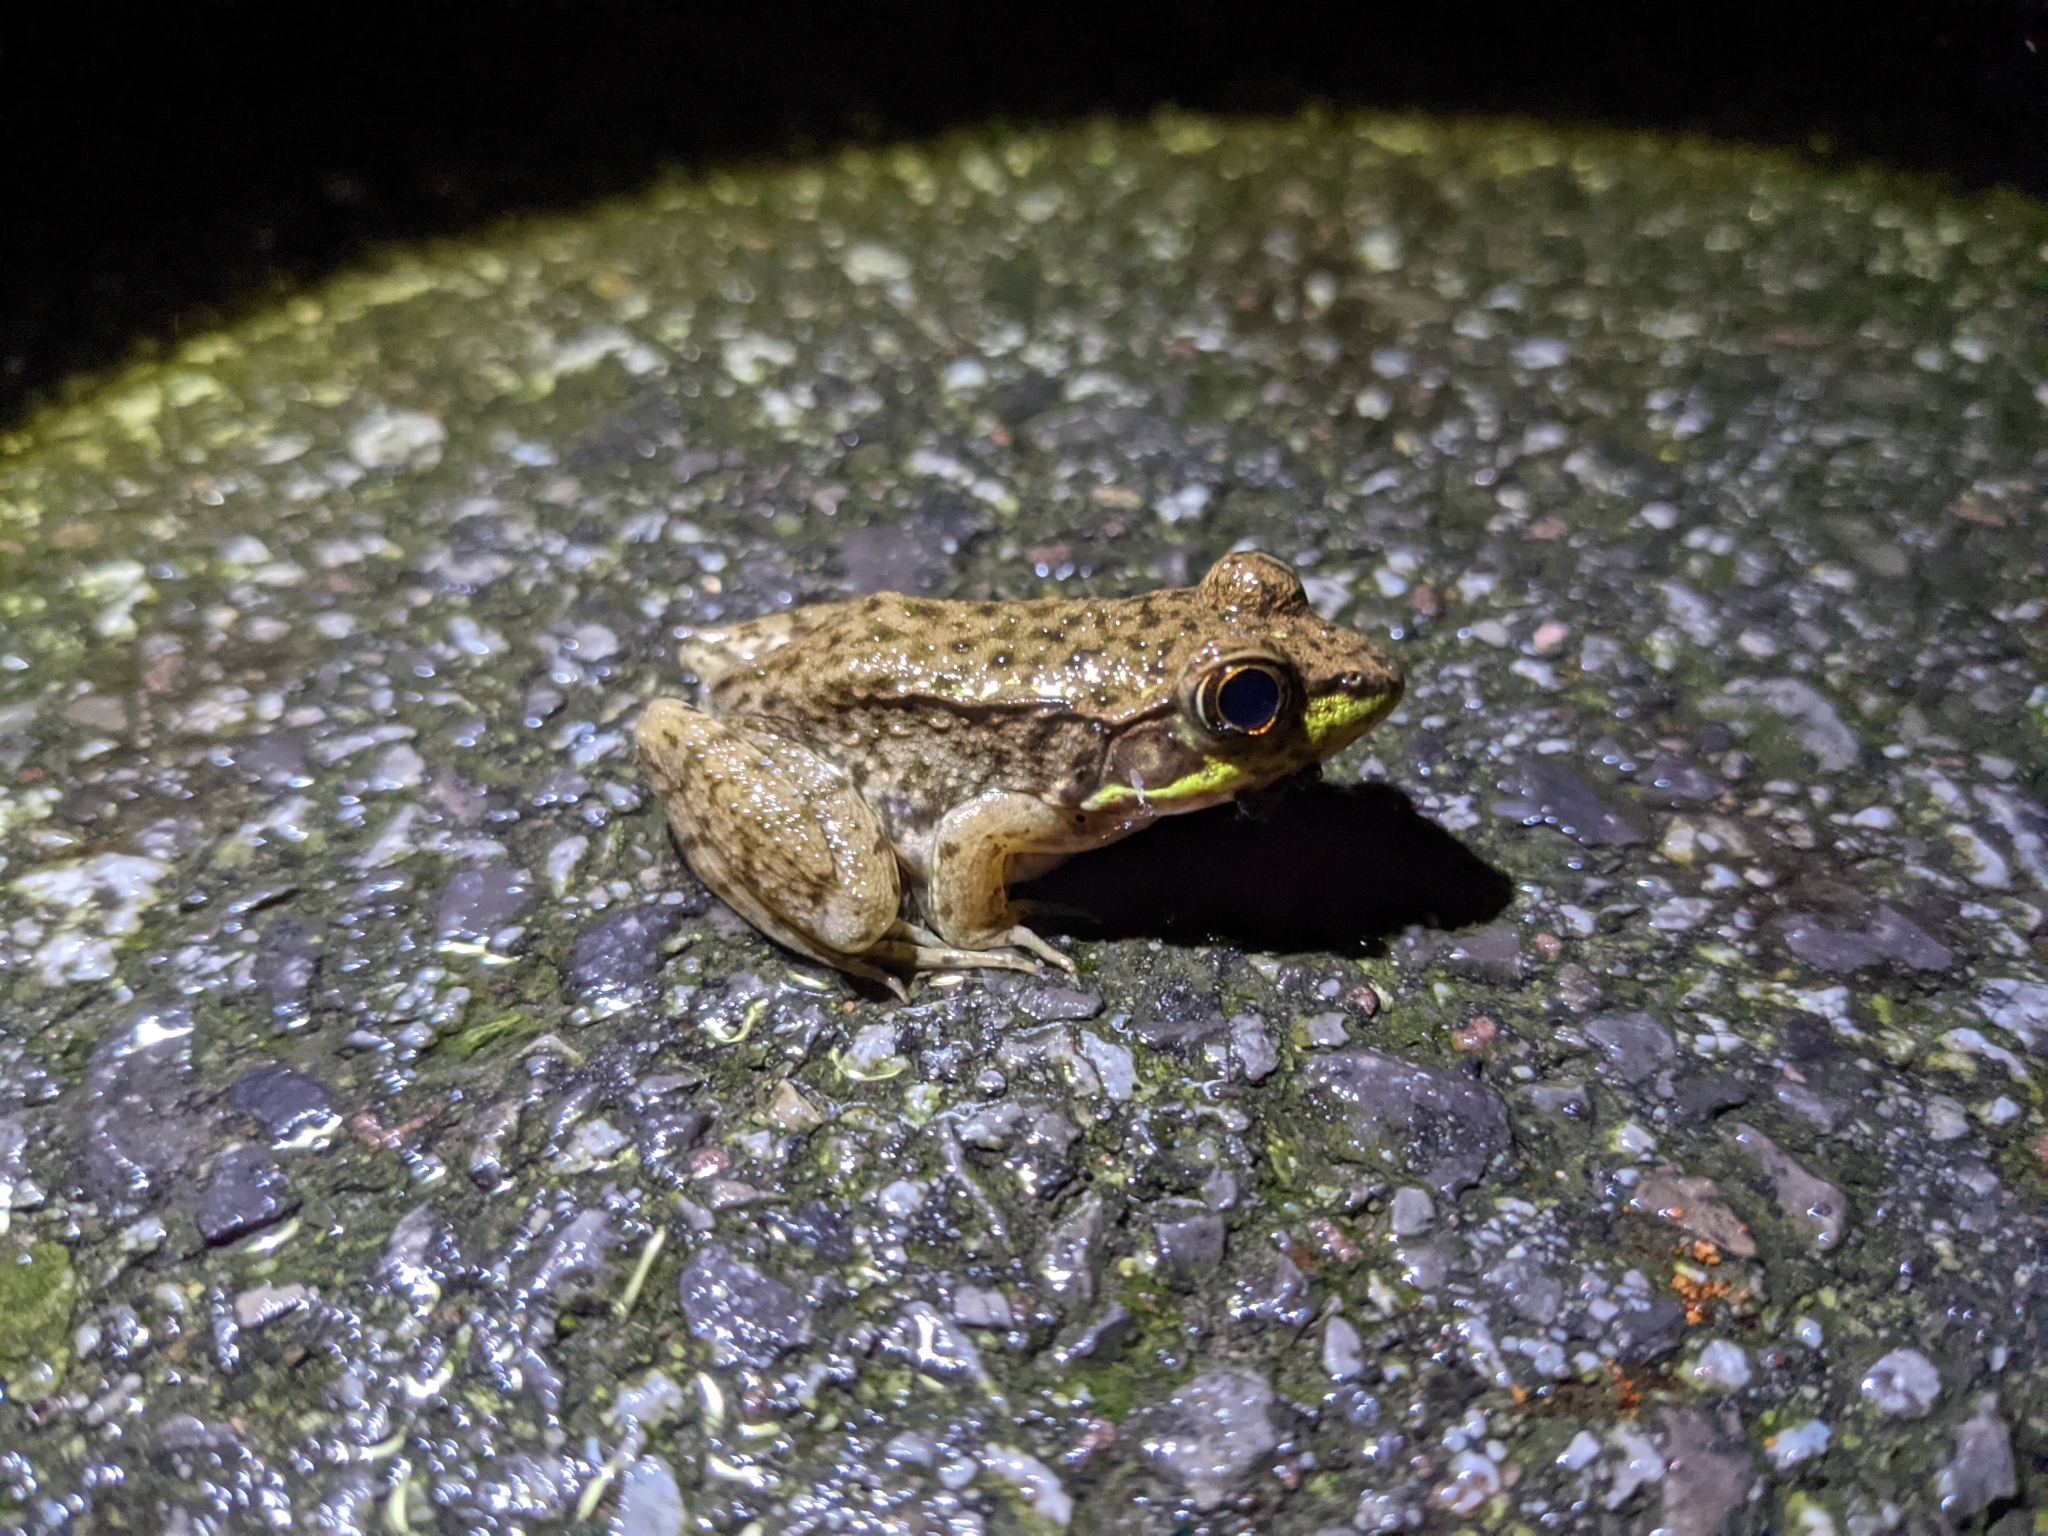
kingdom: Animalia
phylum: Chordata
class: Amphibia
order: Anura
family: Ranidae
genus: Lithobates
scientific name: Lithobates clamitans
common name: Green frog
